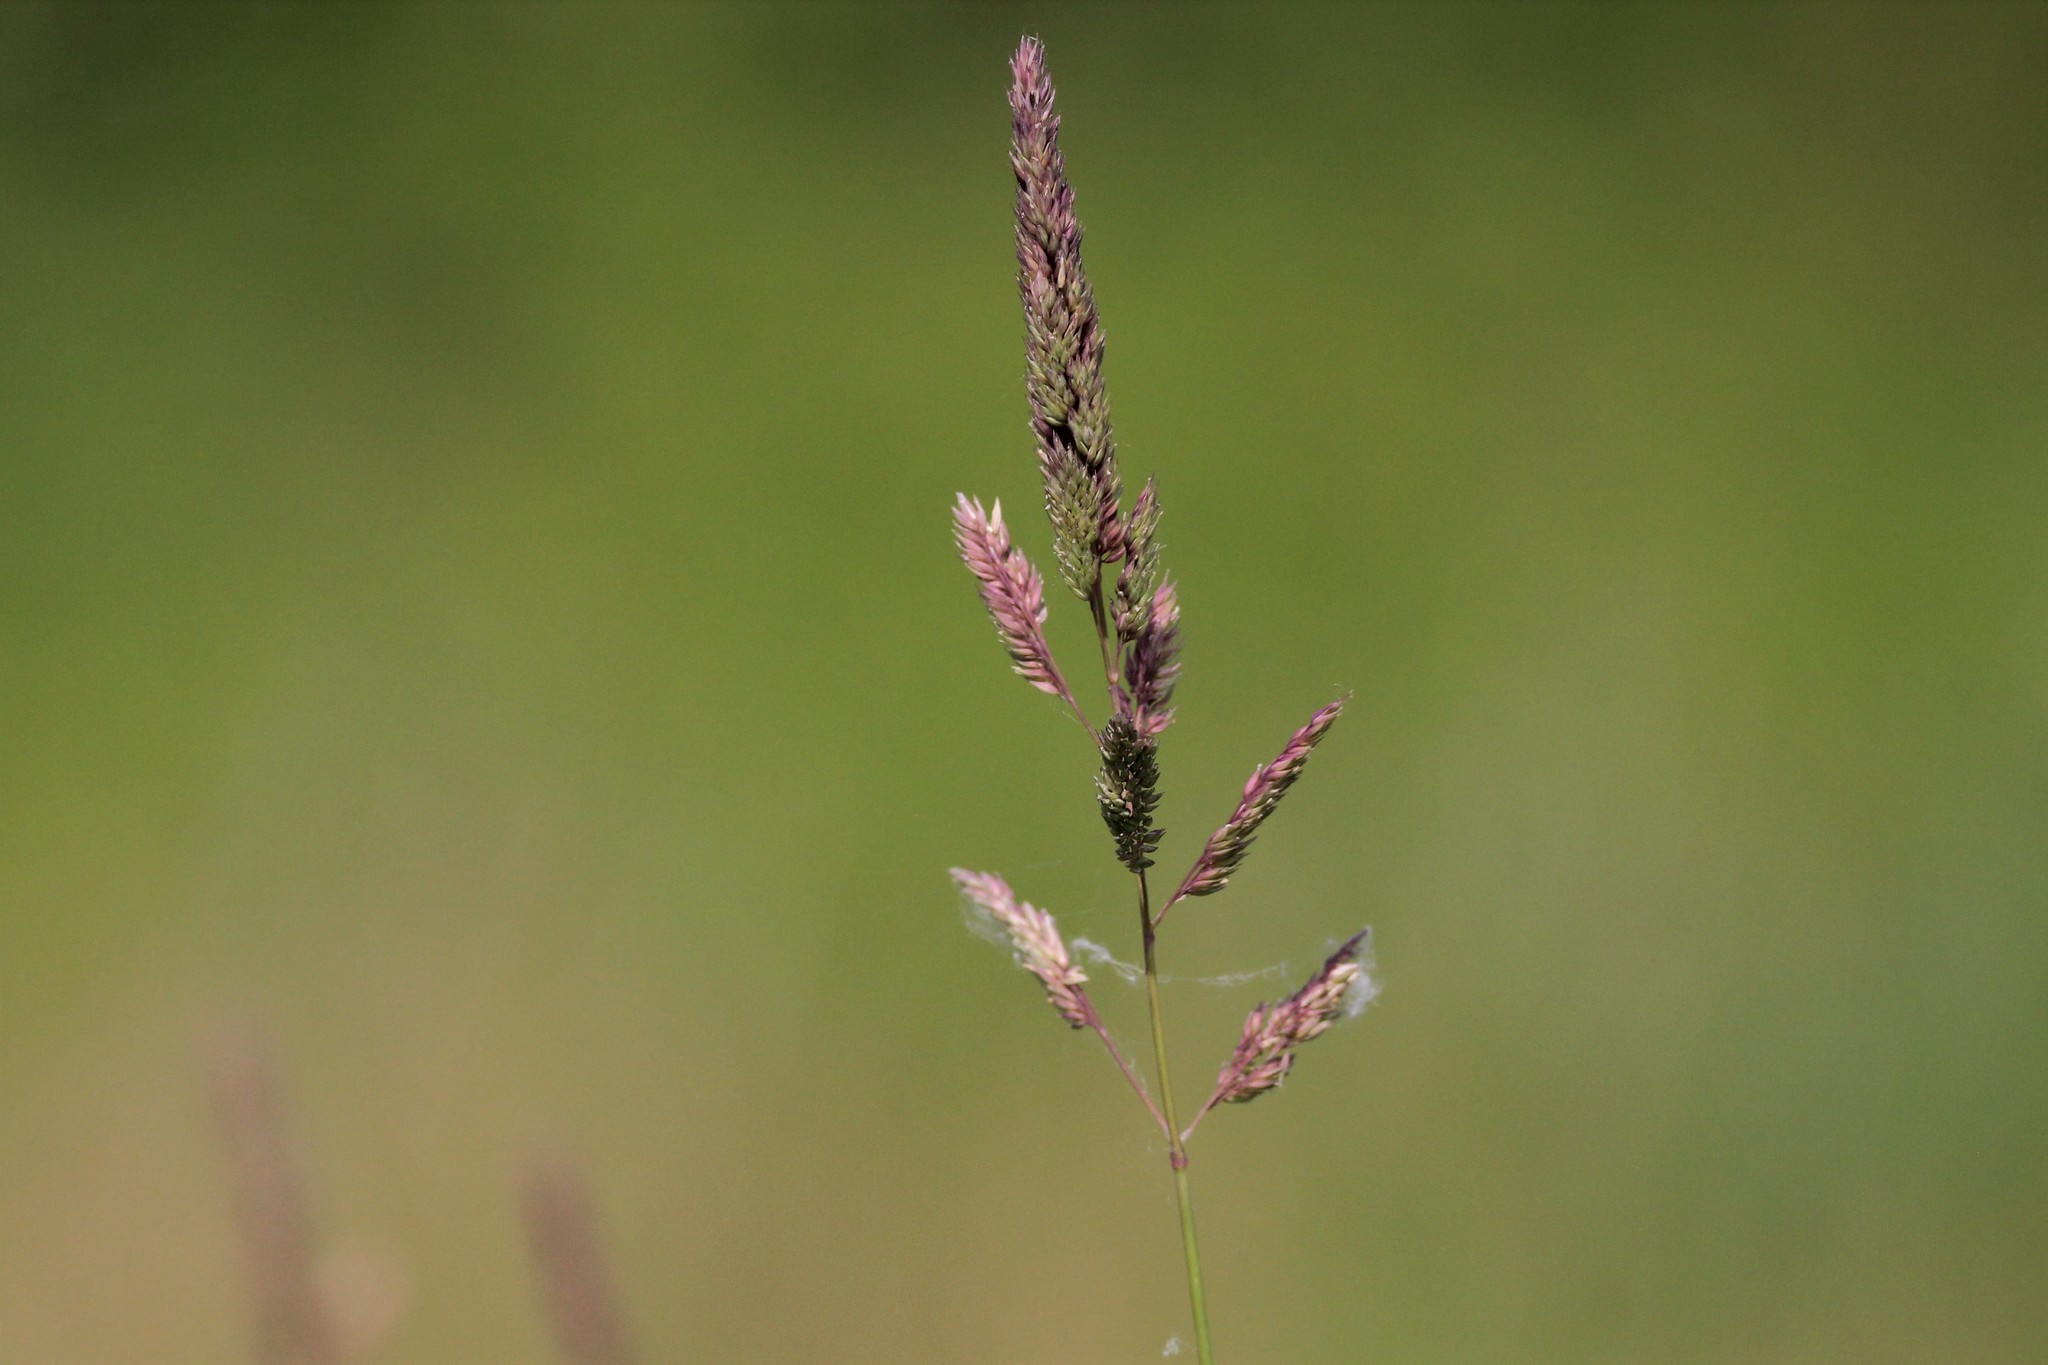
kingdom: Plantae
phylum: Tracheophyta
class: Liliopsida
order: Poales
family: Poaceae
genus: Phalaris
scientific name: Phalaris arundinacea
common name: Reed canary-grass
